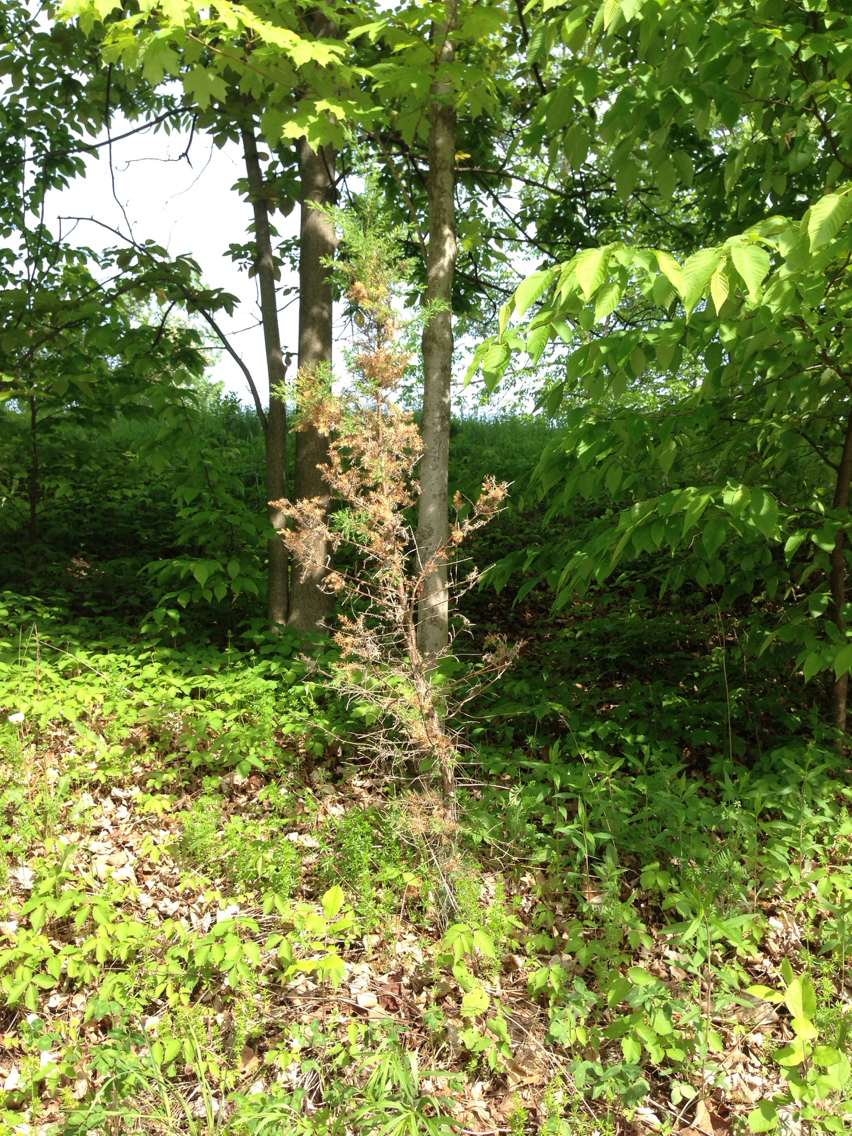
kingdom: Plantae
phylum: Tracheophyta
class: Pinopsida
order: Pinales
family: Cupressaceae
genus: Juniperus
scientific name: Juniperus virginiana
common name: Red juniper
